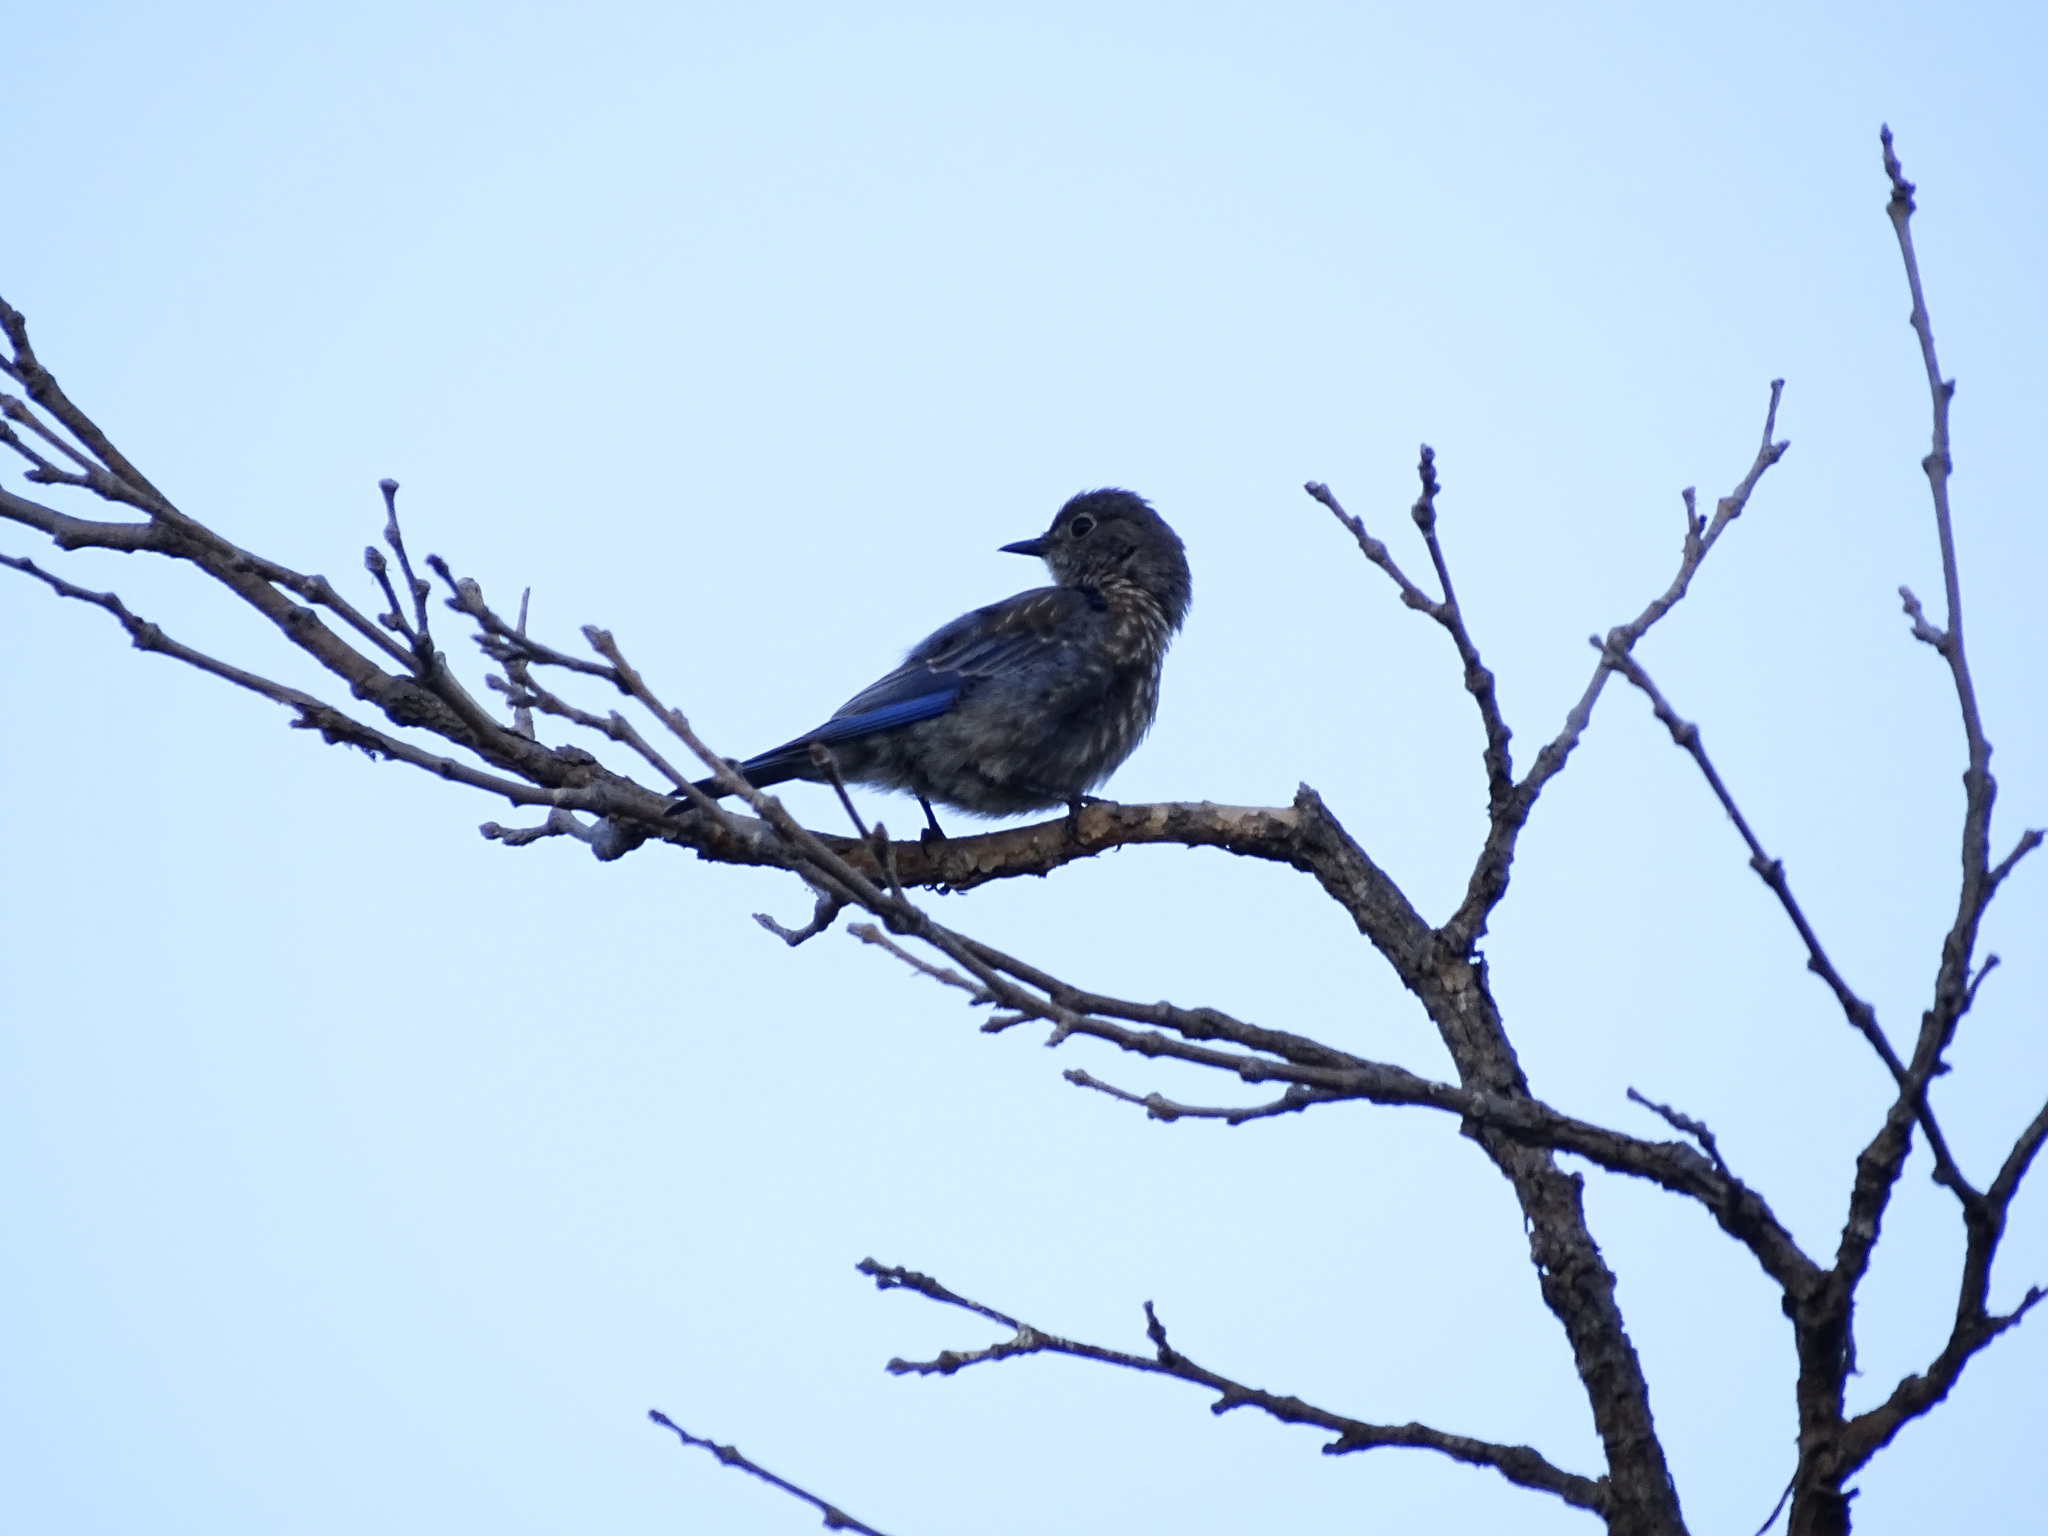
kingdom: Animalia
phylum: Chordata
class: Aves
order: Passeriformes
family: Turdidae
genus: Sialia
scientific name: Sialia mexicana
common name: Western bluebird
